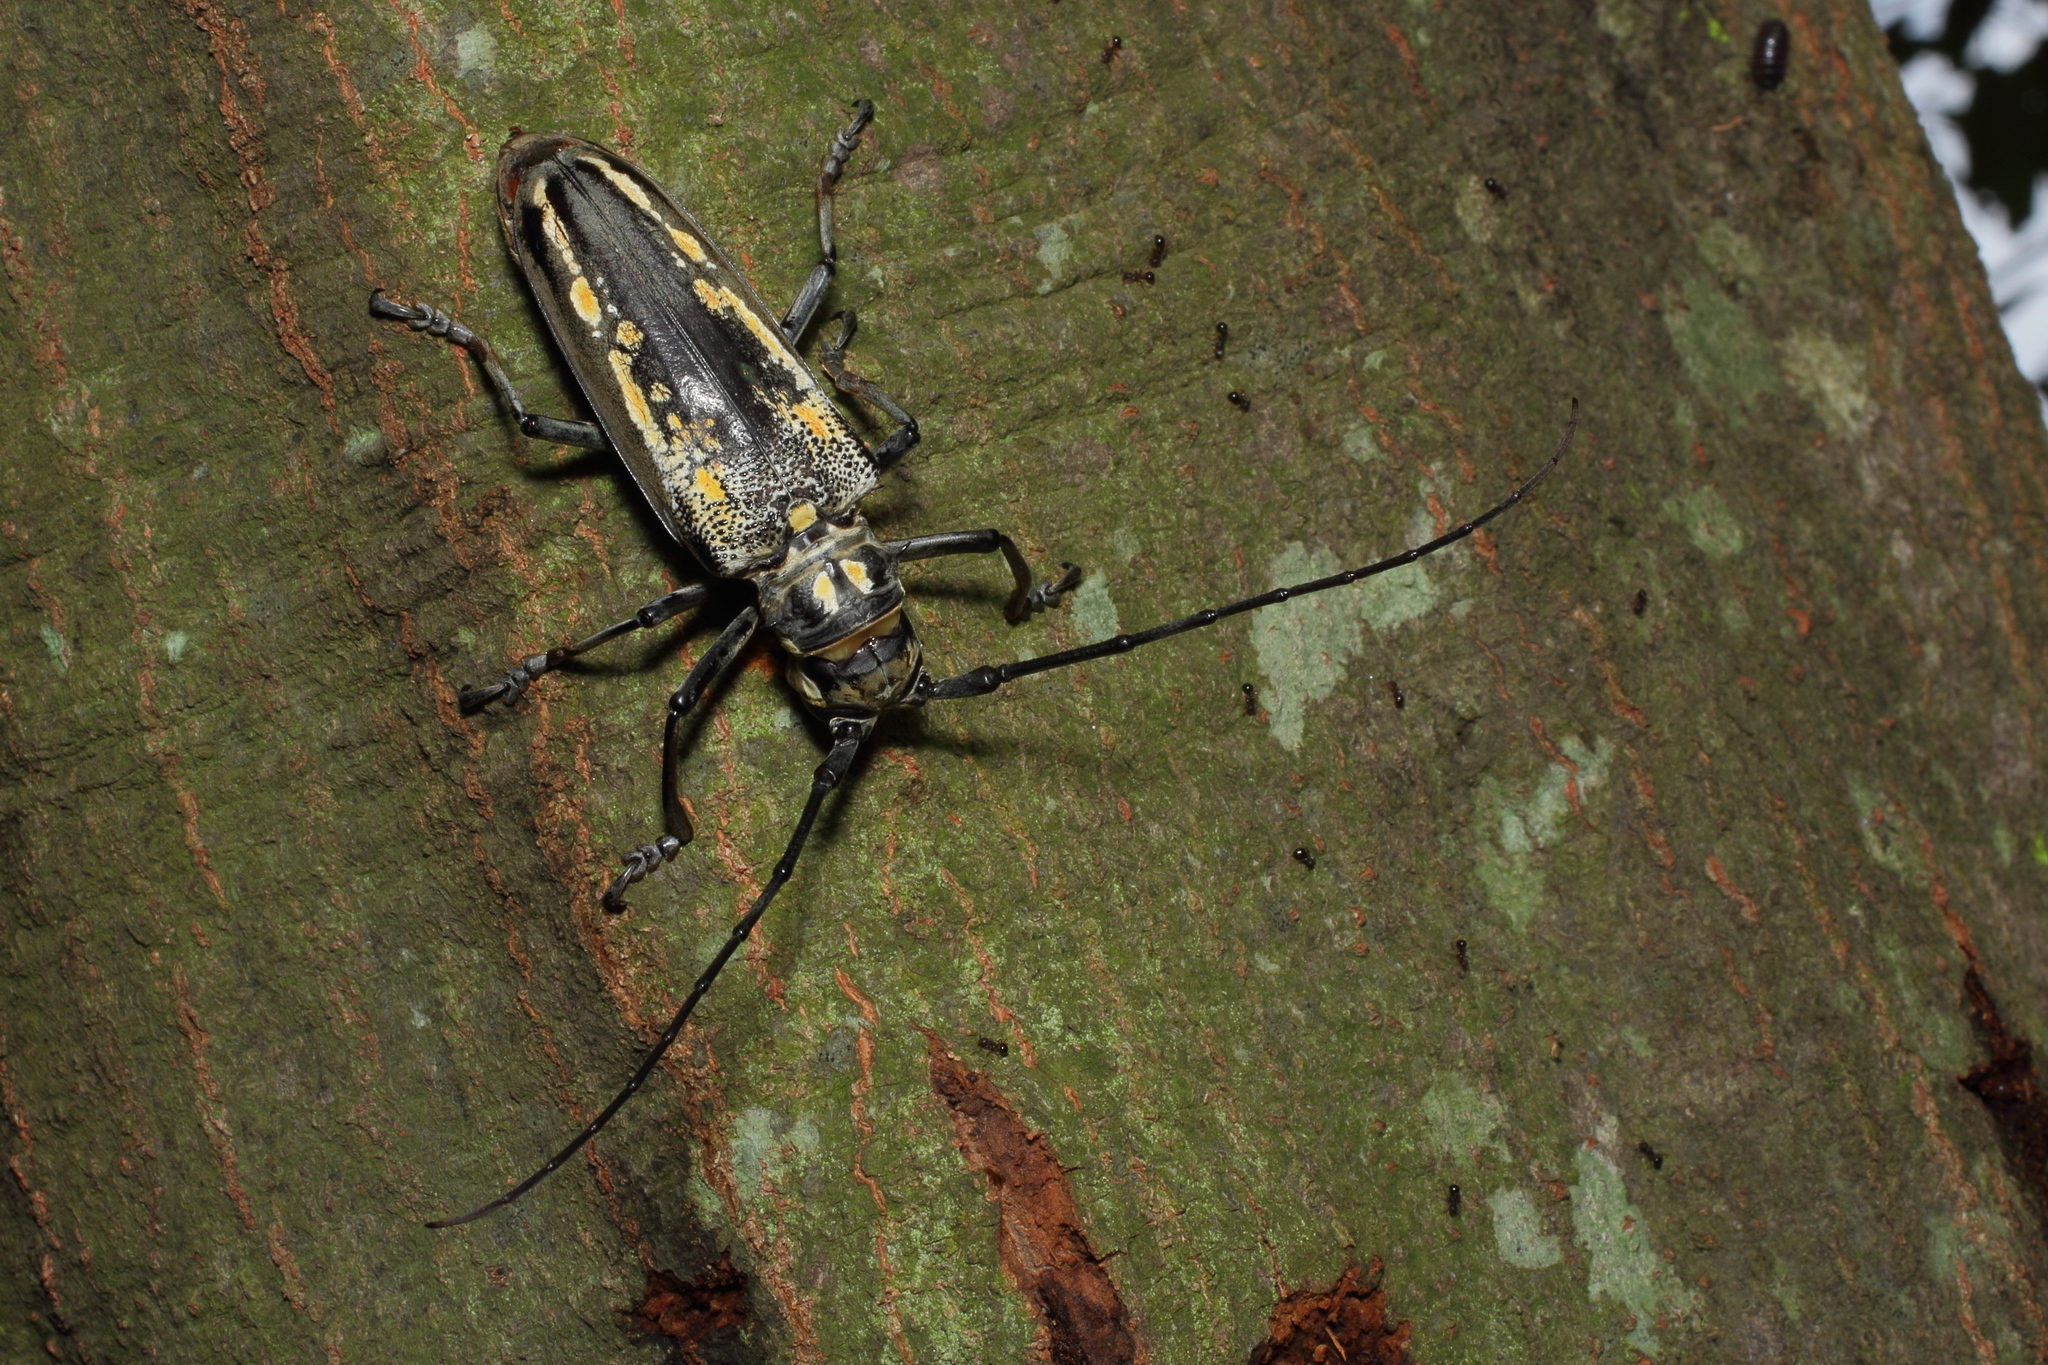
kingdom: Animalia
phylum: Arthropoda
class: Insecta
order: Coleoptera
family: Cerambycidae
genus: Batocera
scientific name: Batocera lineolata
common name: Whitestriped long-horned beetle
